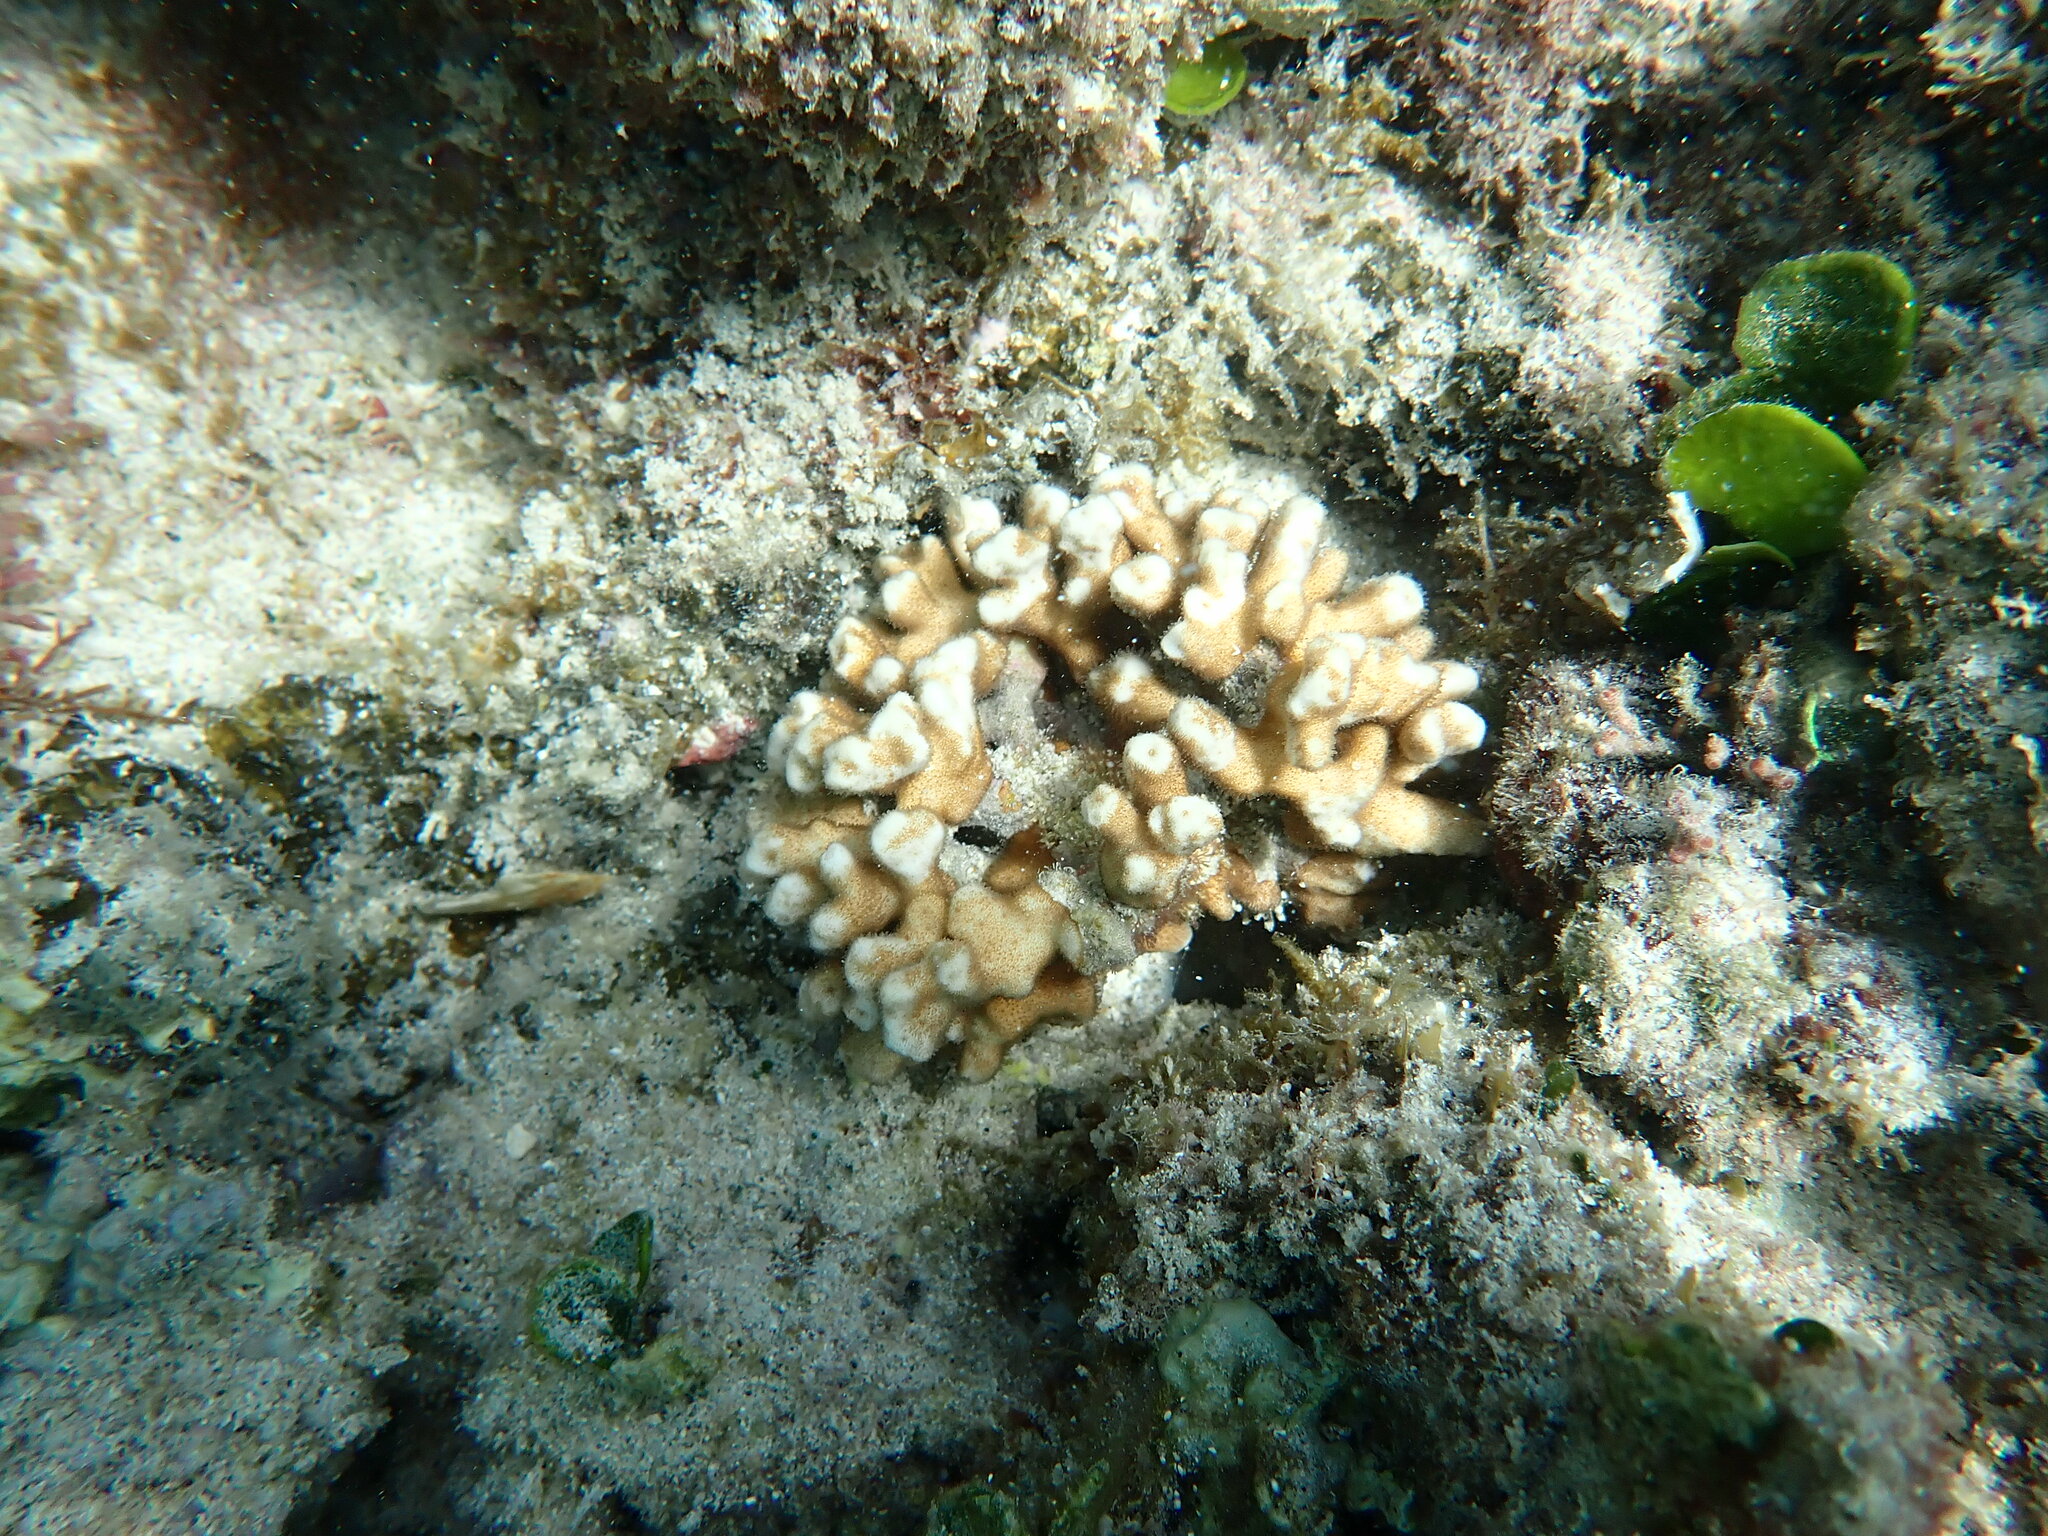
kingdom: Animalia
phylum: Cnidaria
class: Anthozoa
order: Scleractinia
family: Psammocoridae
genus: Psammocora
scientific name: Psammocora stellata
